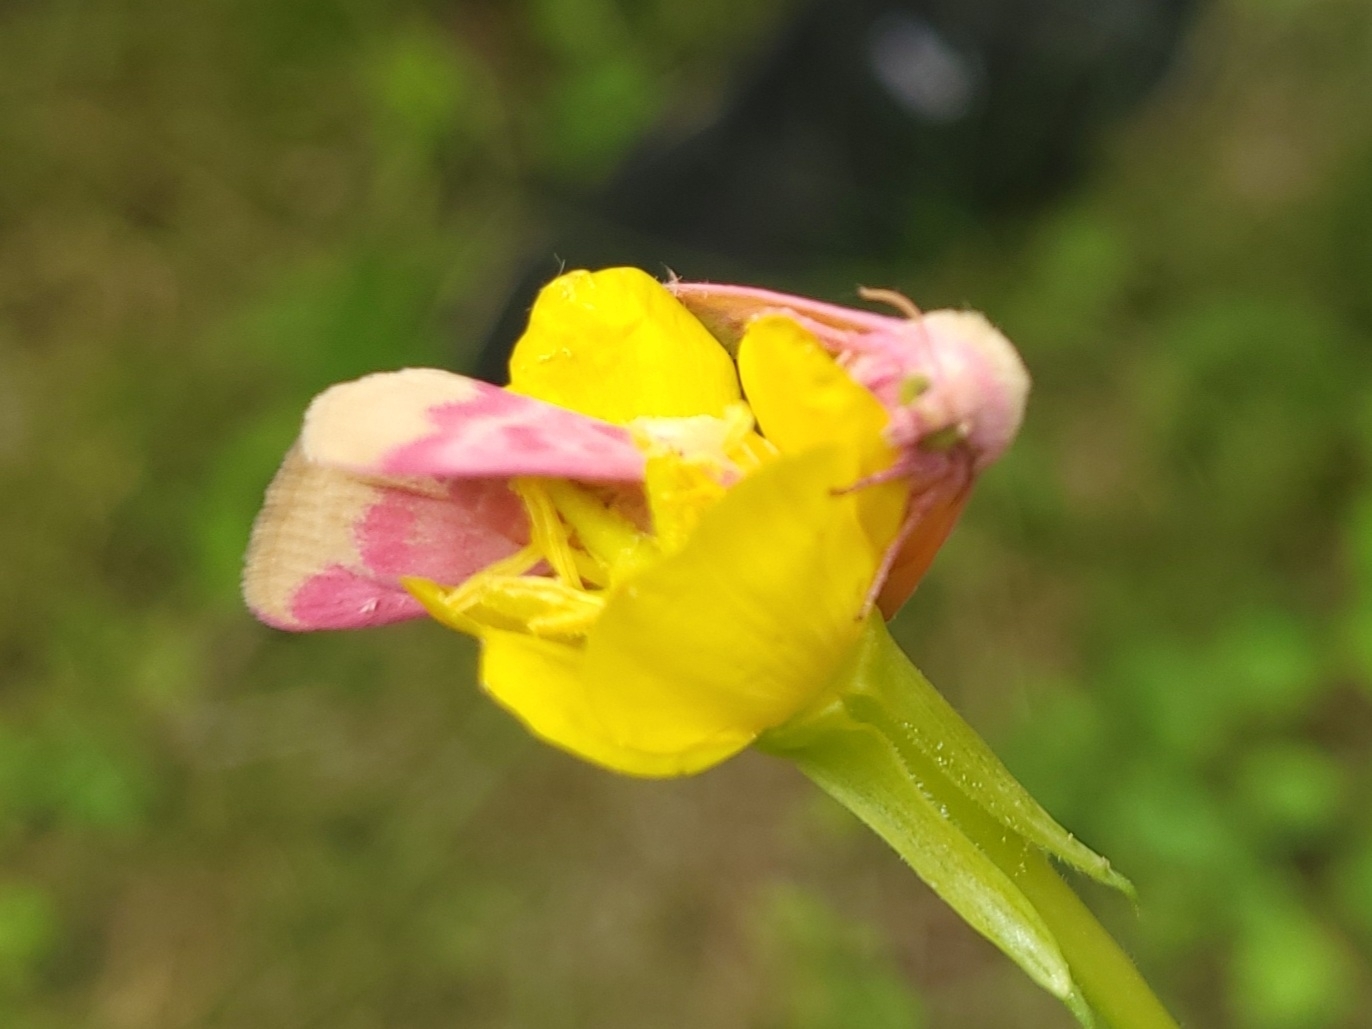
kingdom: Animalia
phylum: Arthropoda
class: Insecta
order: Lepidoptera
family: Noctuidae
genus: Schinia
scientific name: Schinia florida
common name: Primrose moth
